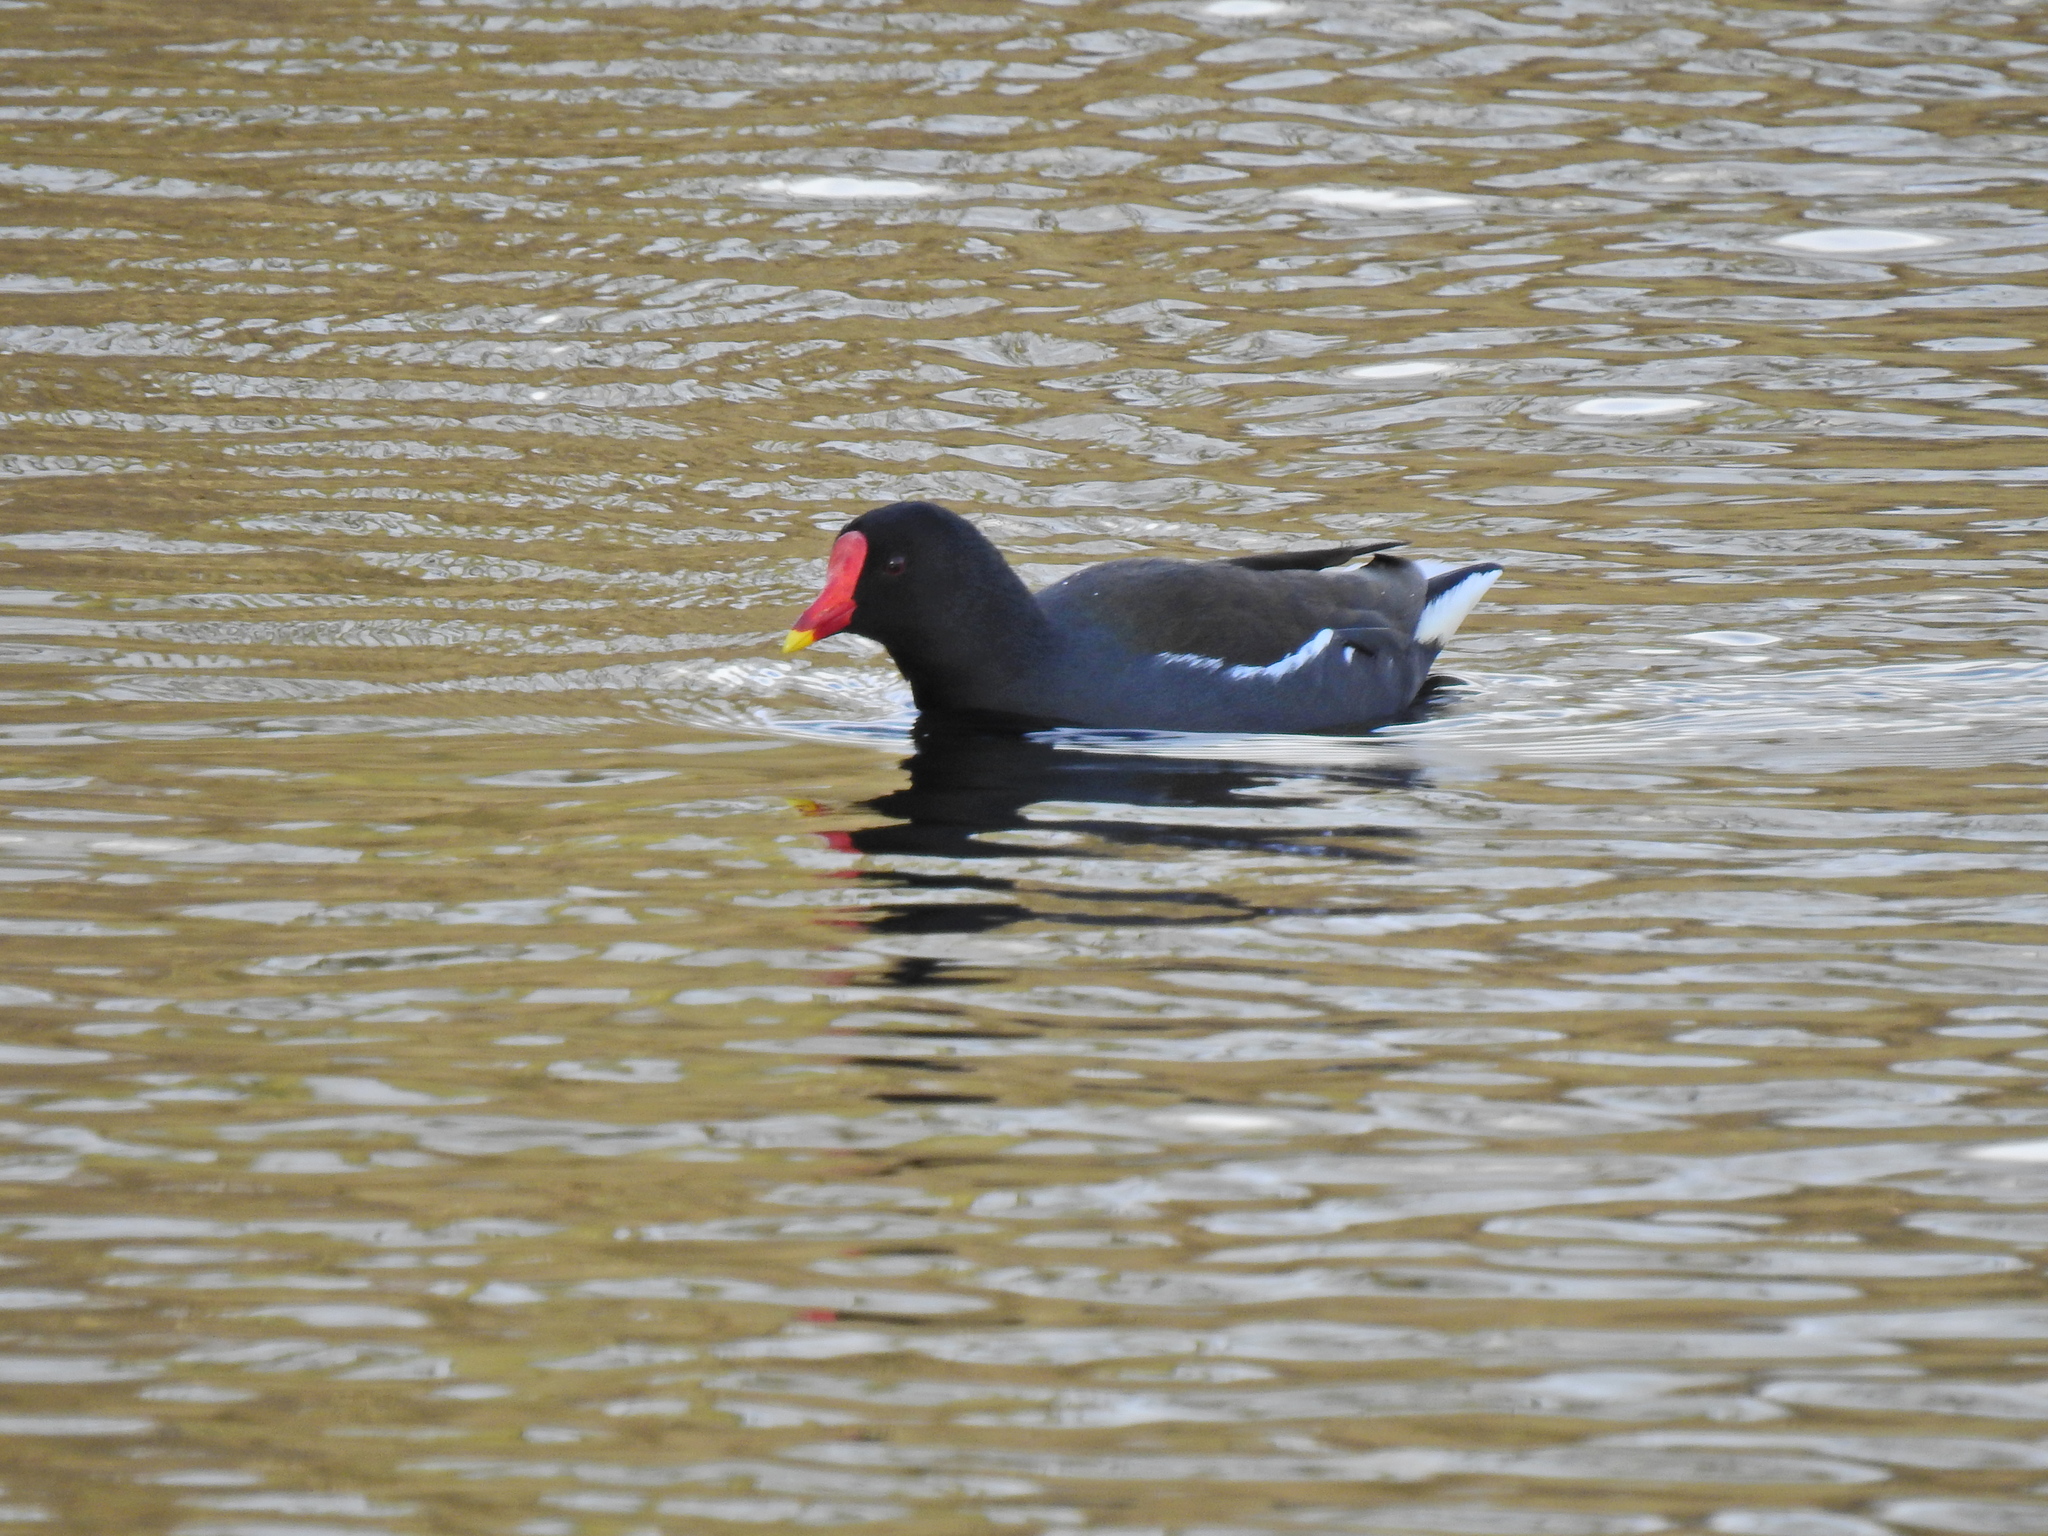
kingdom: Animalia
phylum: Chordata
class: Aves
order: Gruiformes
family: Rallidae
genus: Gallinula
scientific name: Gallinula chloropus
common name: Common moorhen
